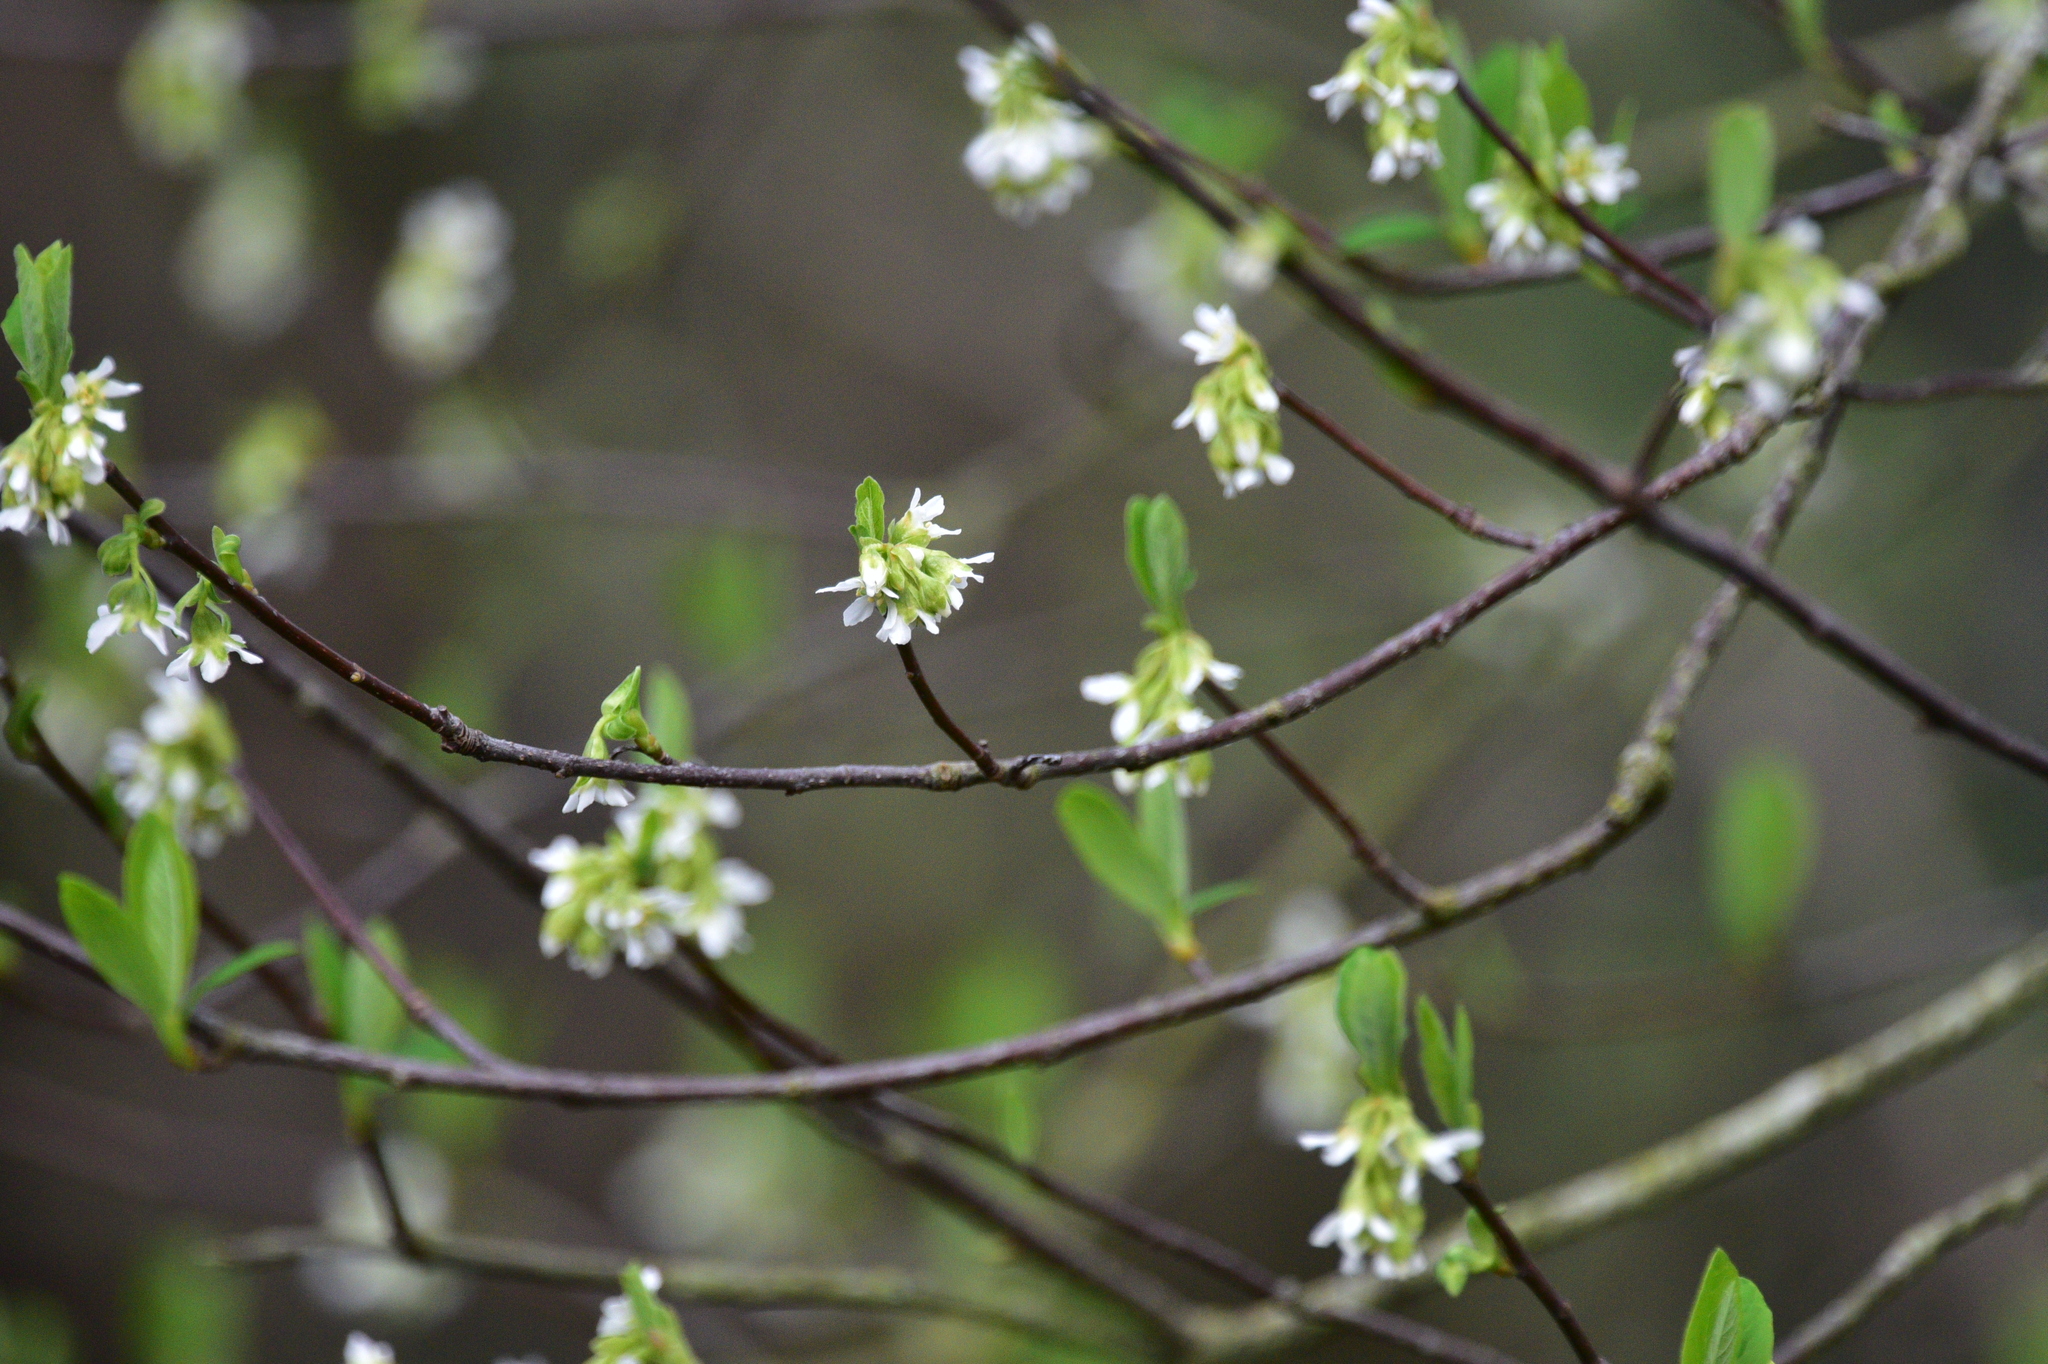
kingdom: Plantae
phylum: Tracheophyta
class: Magnoliopsida
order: Rosales
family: Rosaceae
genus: Oemleria
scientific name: Oemleria cerasiformis
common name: Osoberry
